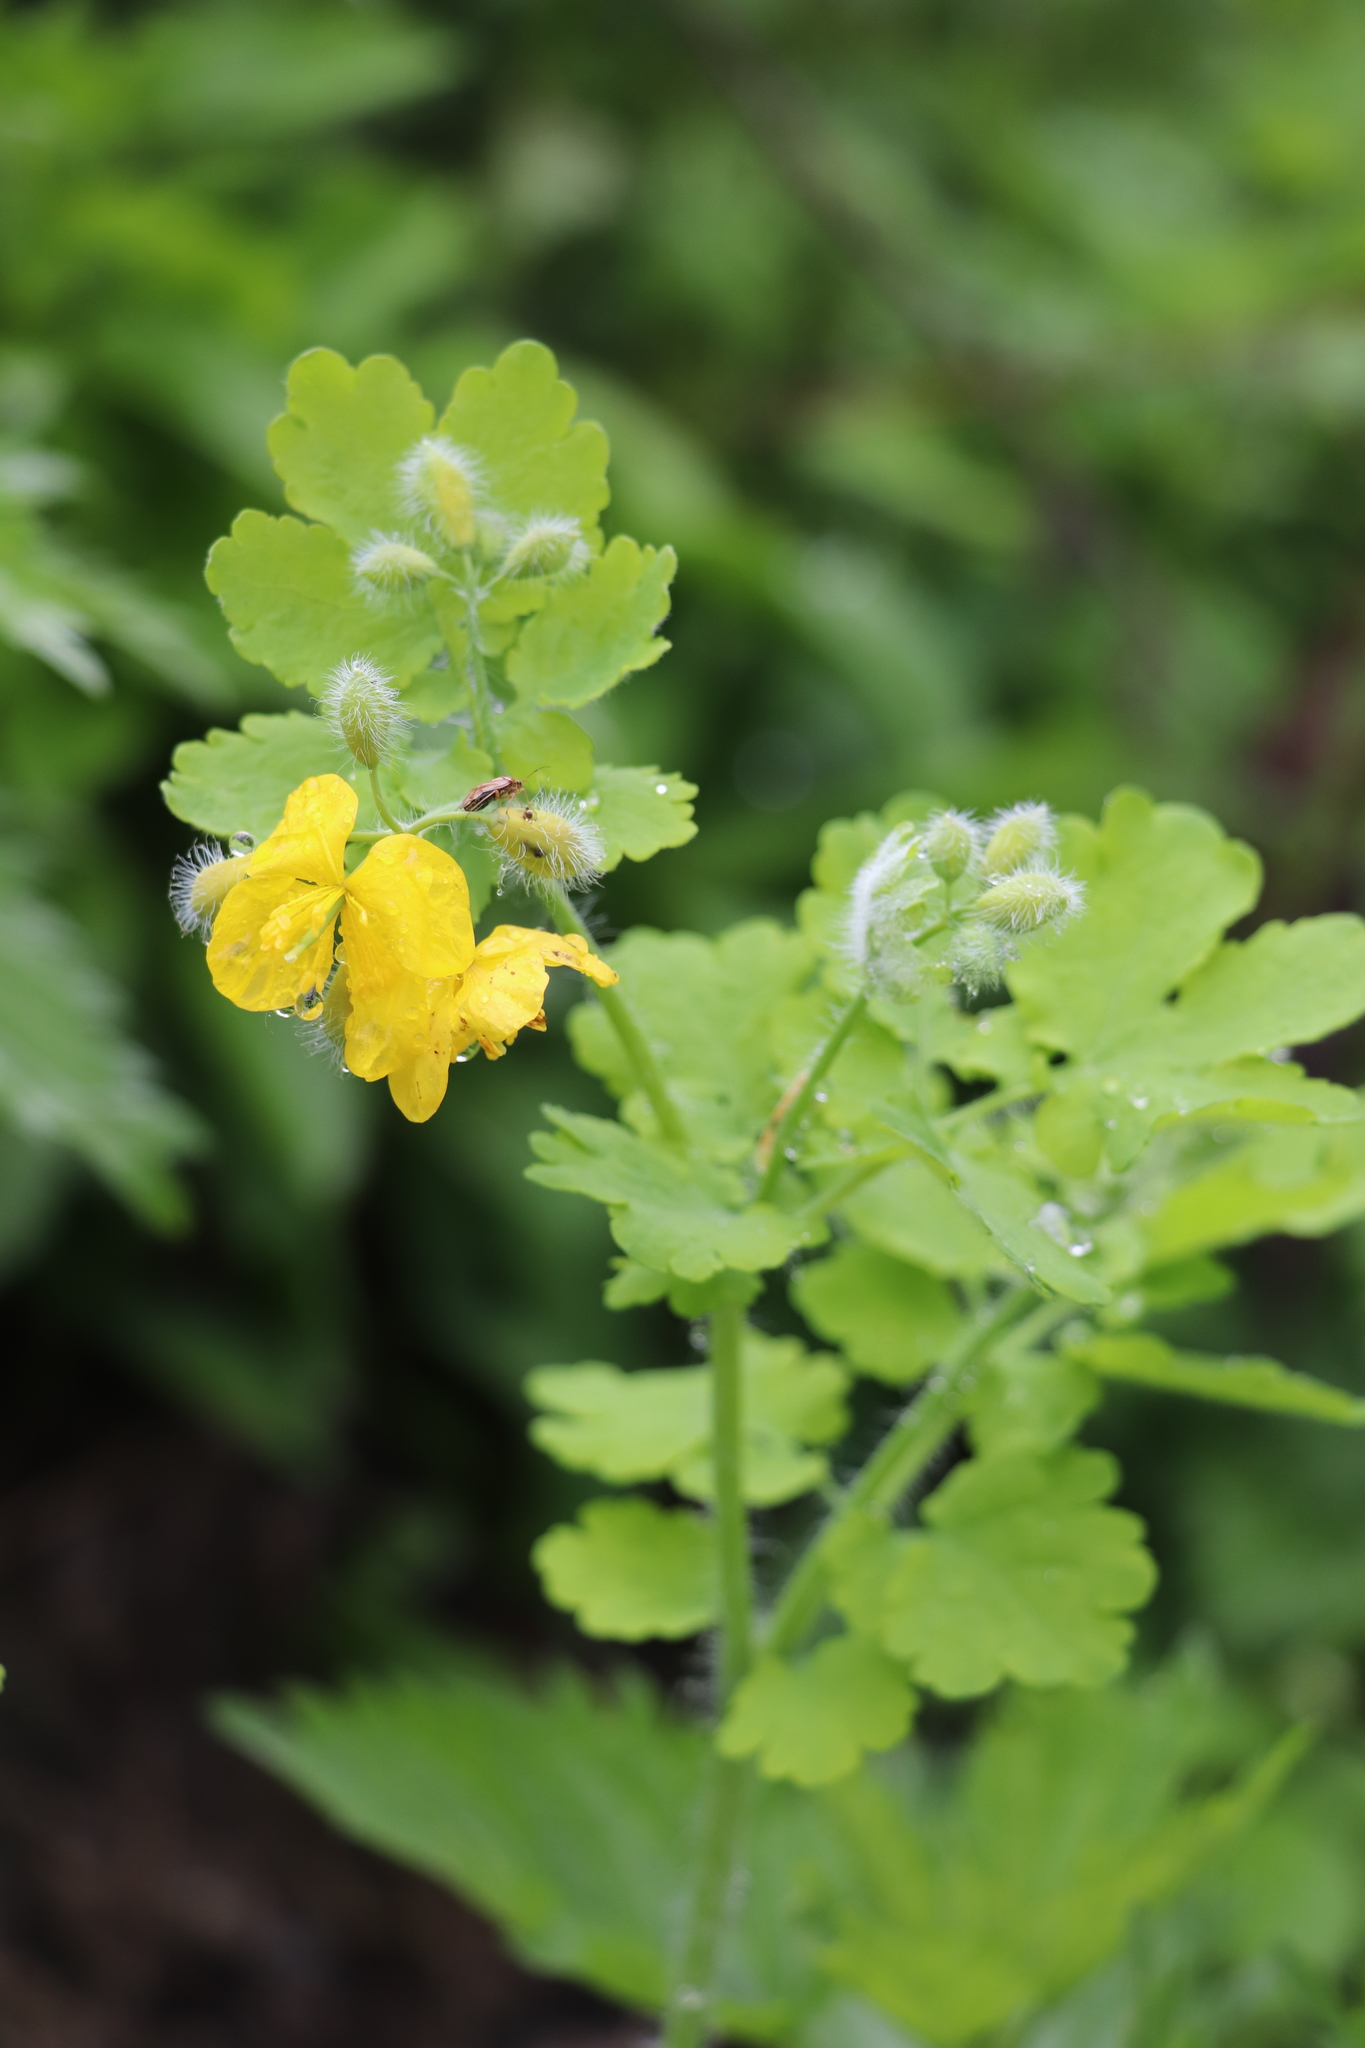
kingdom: Plantae
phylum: Tracheophyta
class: Magnoliopsida
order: Ranunculales
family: Papaveraceae
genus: Chelidonium
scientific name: Chelidonium majus
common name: Greater celandine
